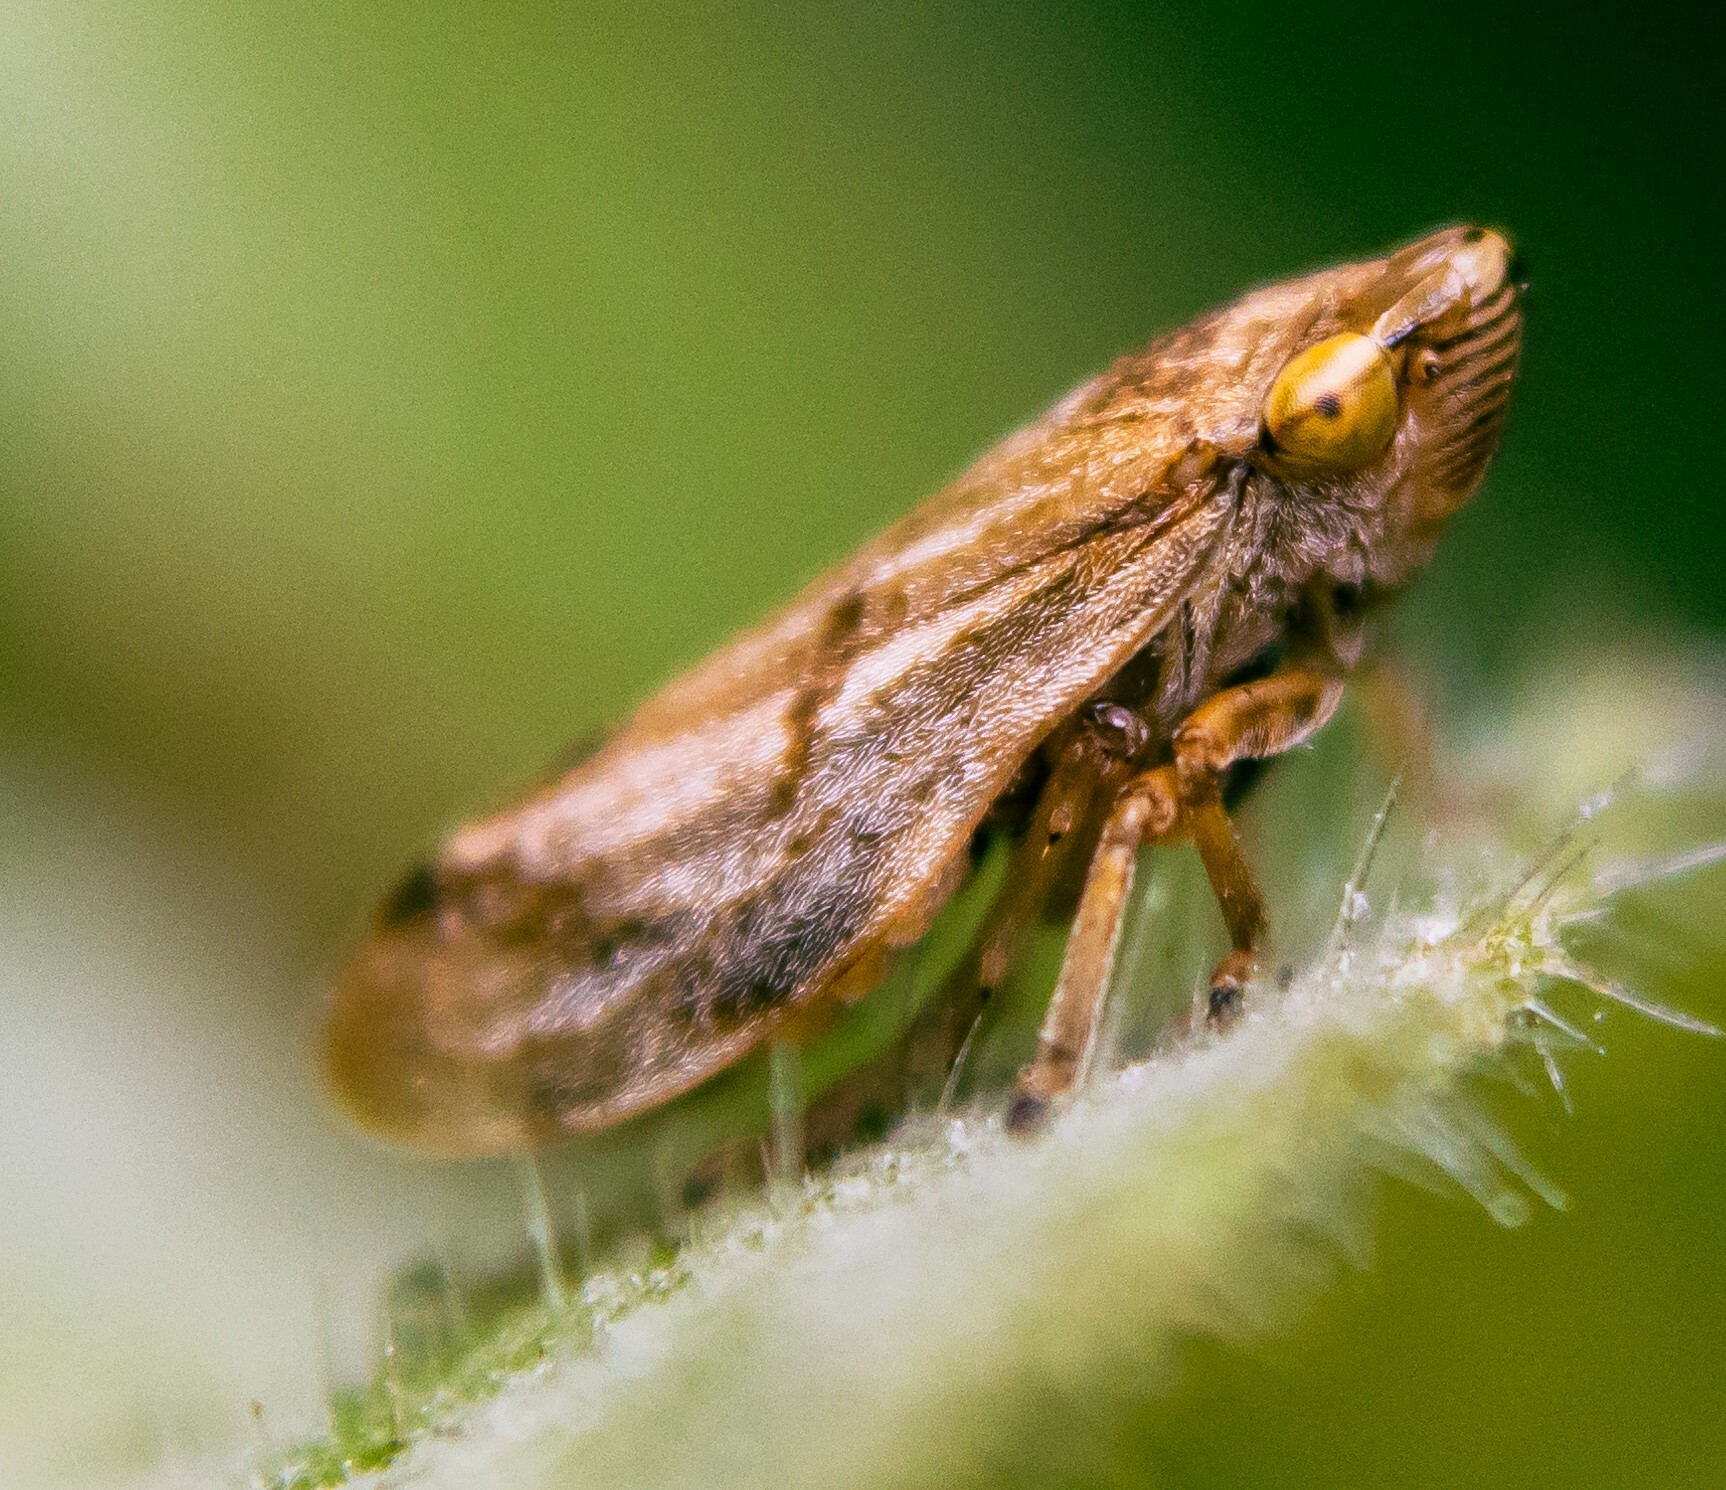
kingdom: Animalia
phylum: Arthropoda
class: Insecta
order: Hemiptera
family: Aphrophoridae
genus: Philaenus
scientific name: Philaenus spumarius
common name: Meadow spittlebug
